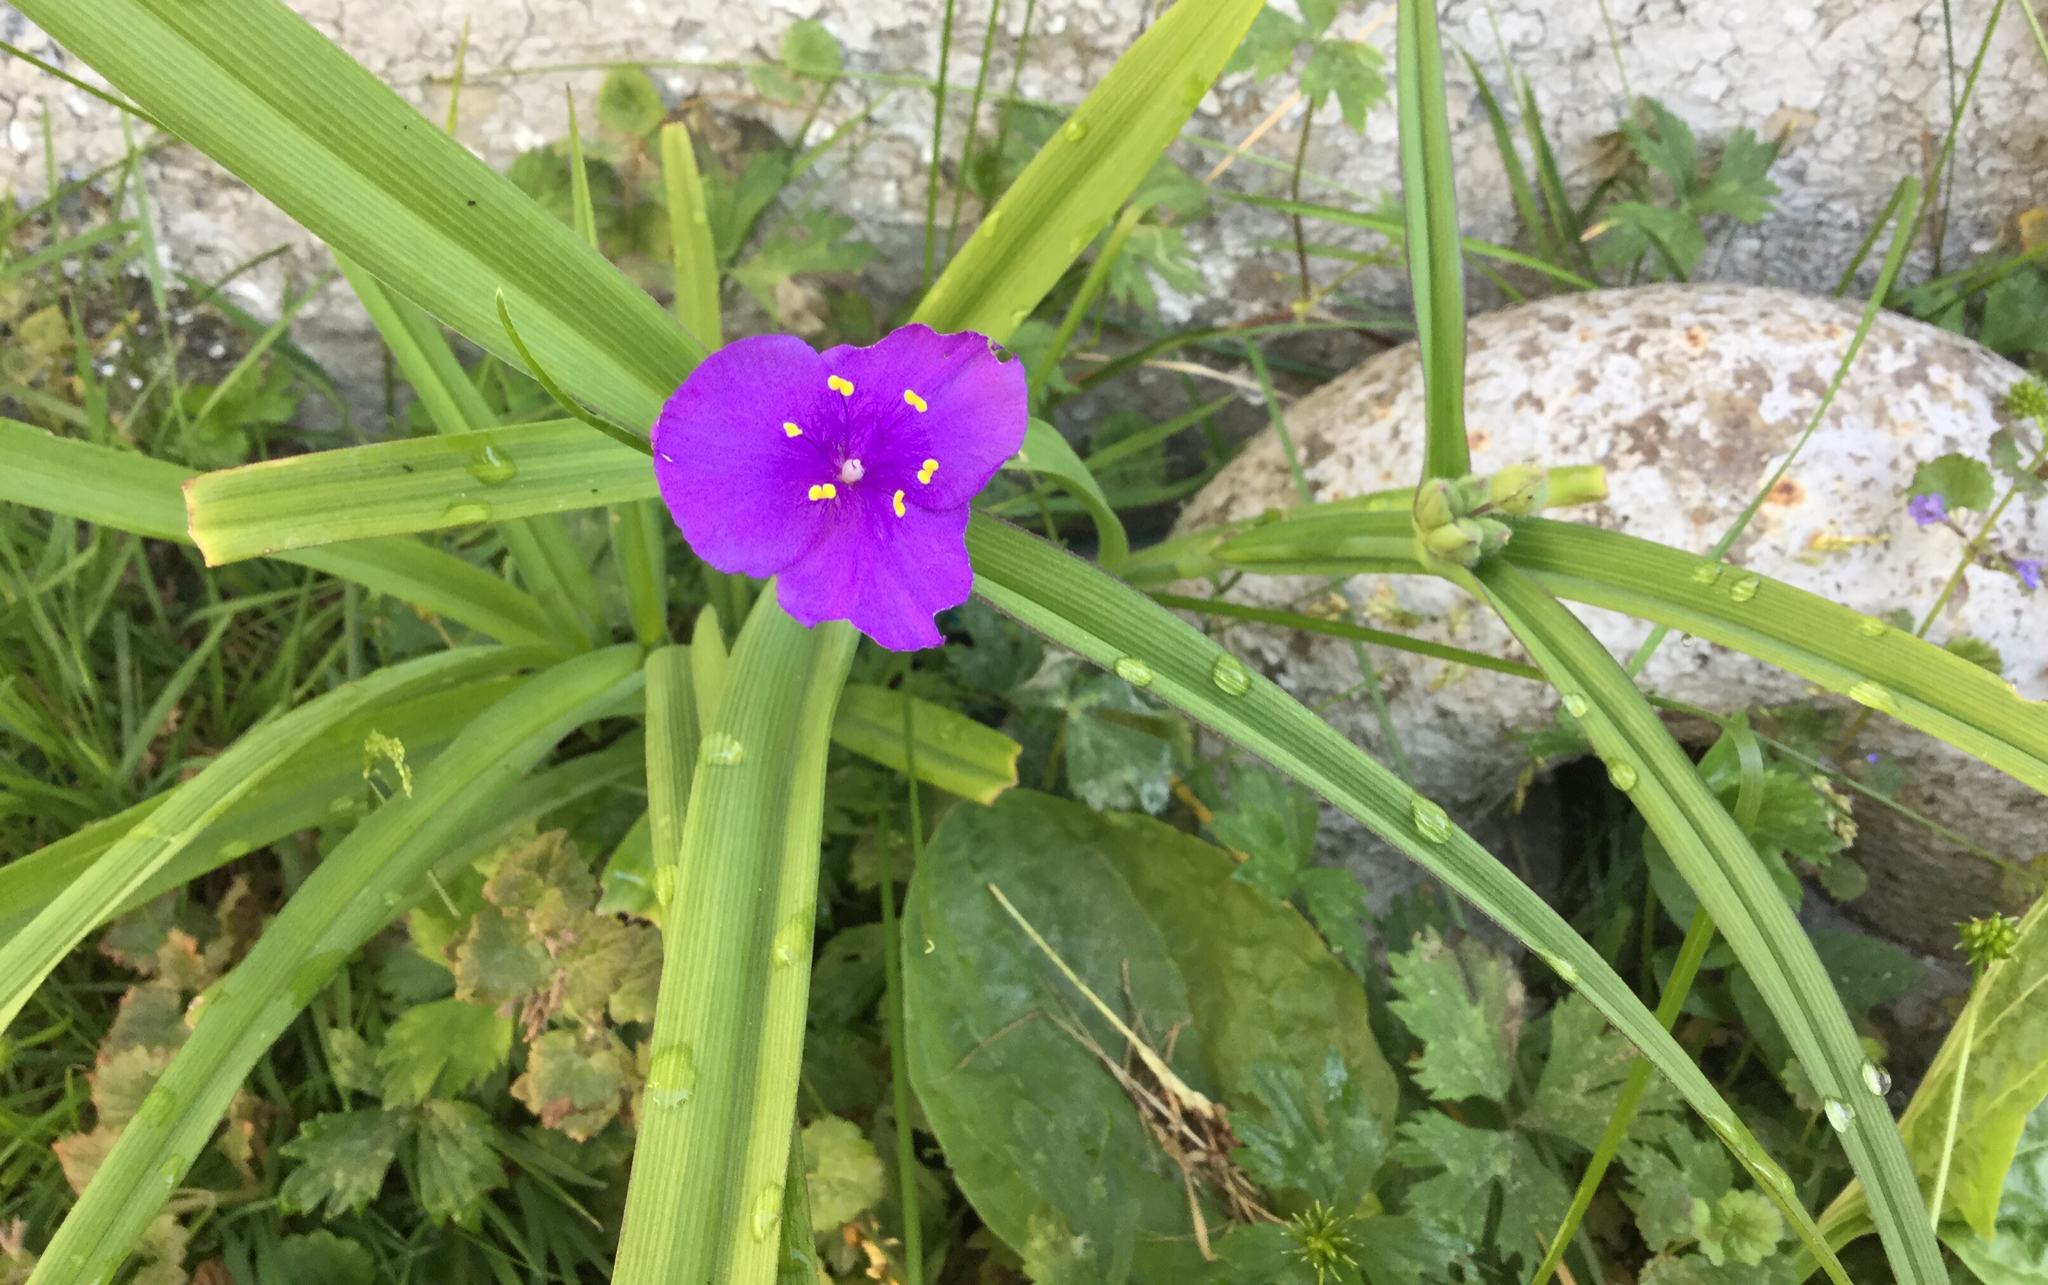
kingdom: Plantae
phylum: Tracheophyta
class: Liliopsida
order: Commelinales
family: Commelinaceae
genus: Tradescantia
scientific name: Tradescantia virginiana
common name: Spiderwort
